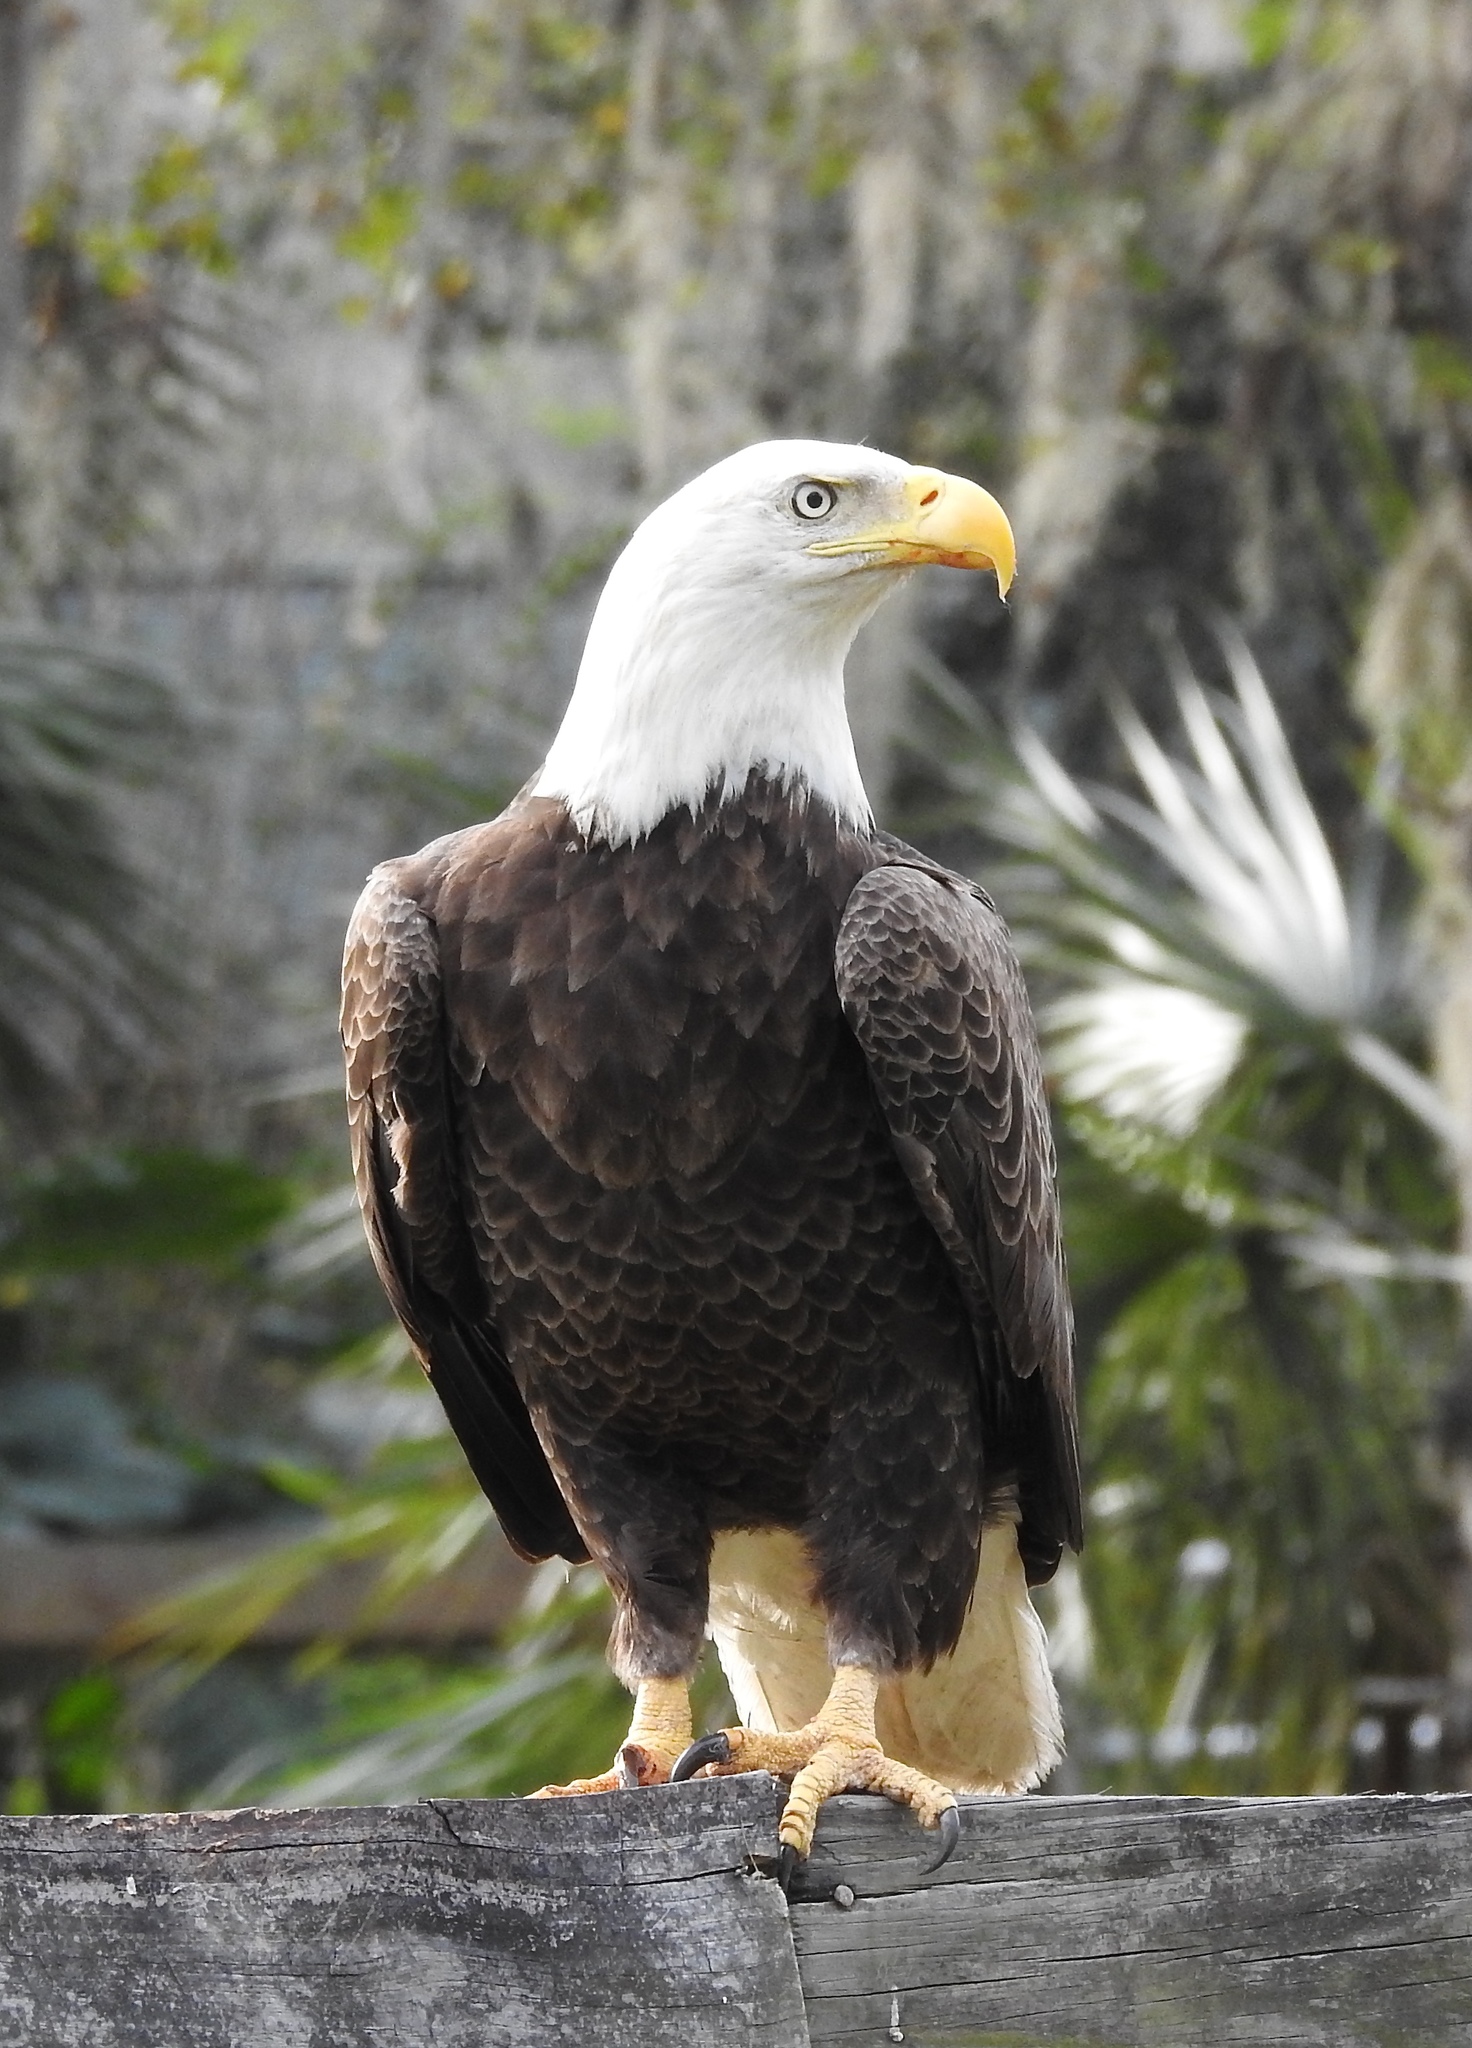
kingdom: Animalia
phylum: Chordata
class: Aves
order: Accipitriformes
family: Accipitridae
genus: Haliaeetus
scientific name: Haliaeetus leucocephalus
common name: Bald eagle
